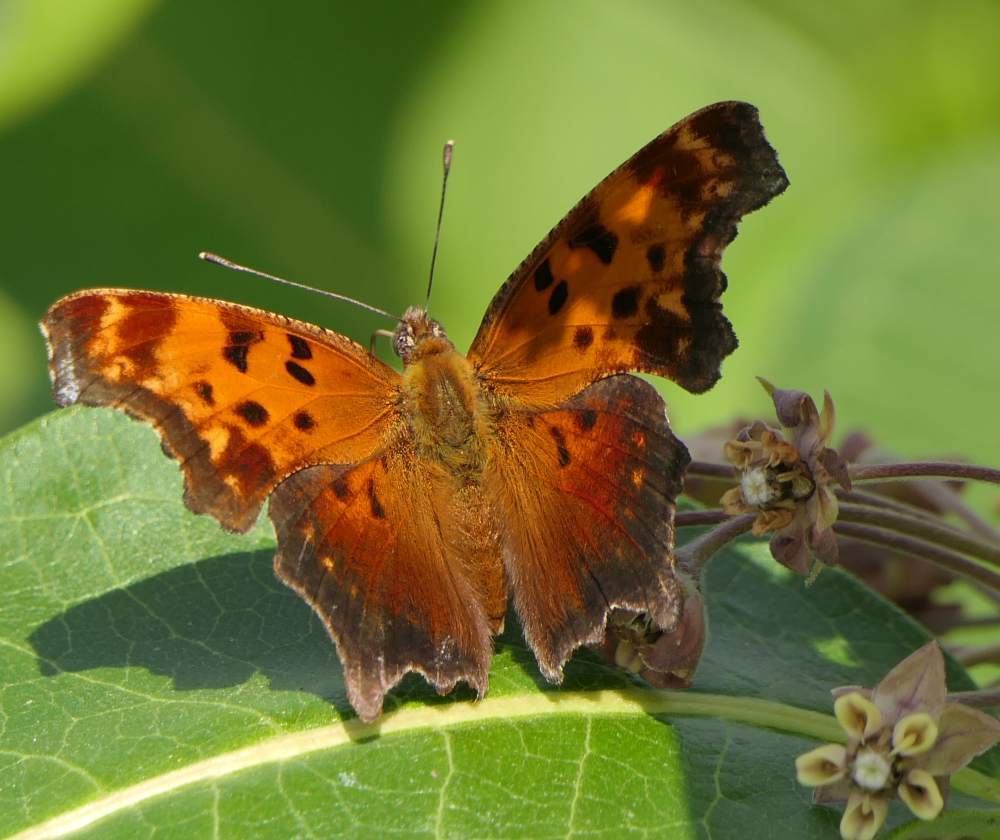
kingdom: Animalia
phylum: Arthropoda
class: Insecta
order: Lepidoptera
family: Nymphalidae
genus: Polygonia
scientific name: Polygonia progne
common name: Gray comma
